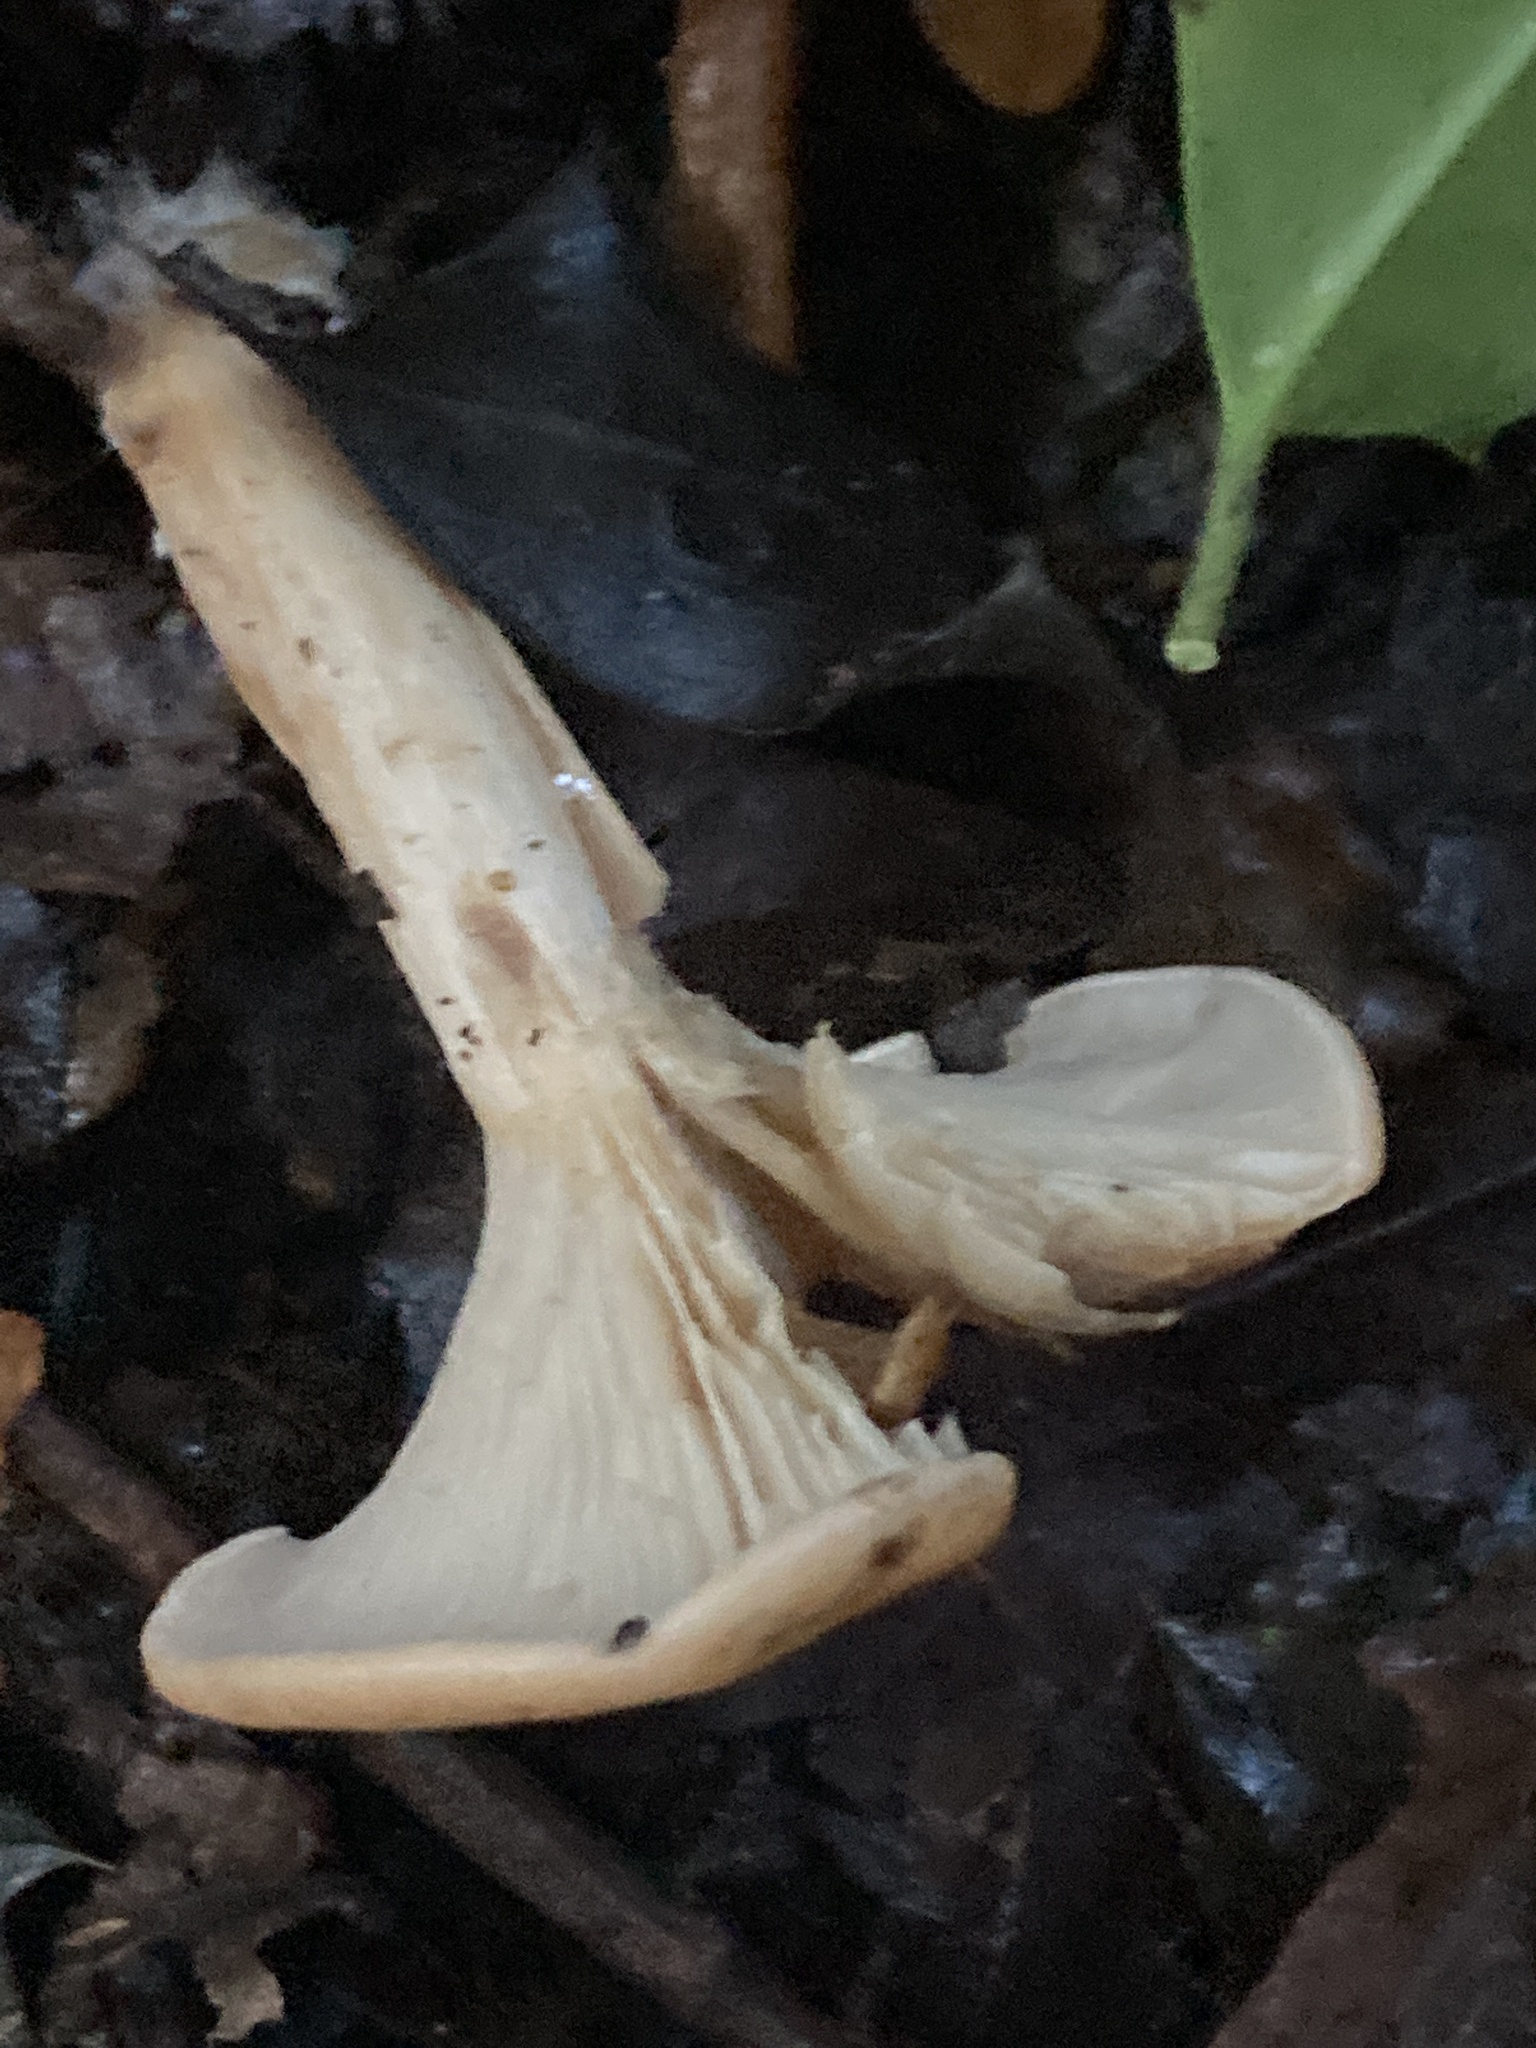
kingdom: Fungi
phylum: Basidiomycota
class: Agaricomycetes
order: Agaricales
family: Tricholomataceae
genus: Paralepista
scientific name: Paralepista flaccida
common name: Tawny funnel cap
